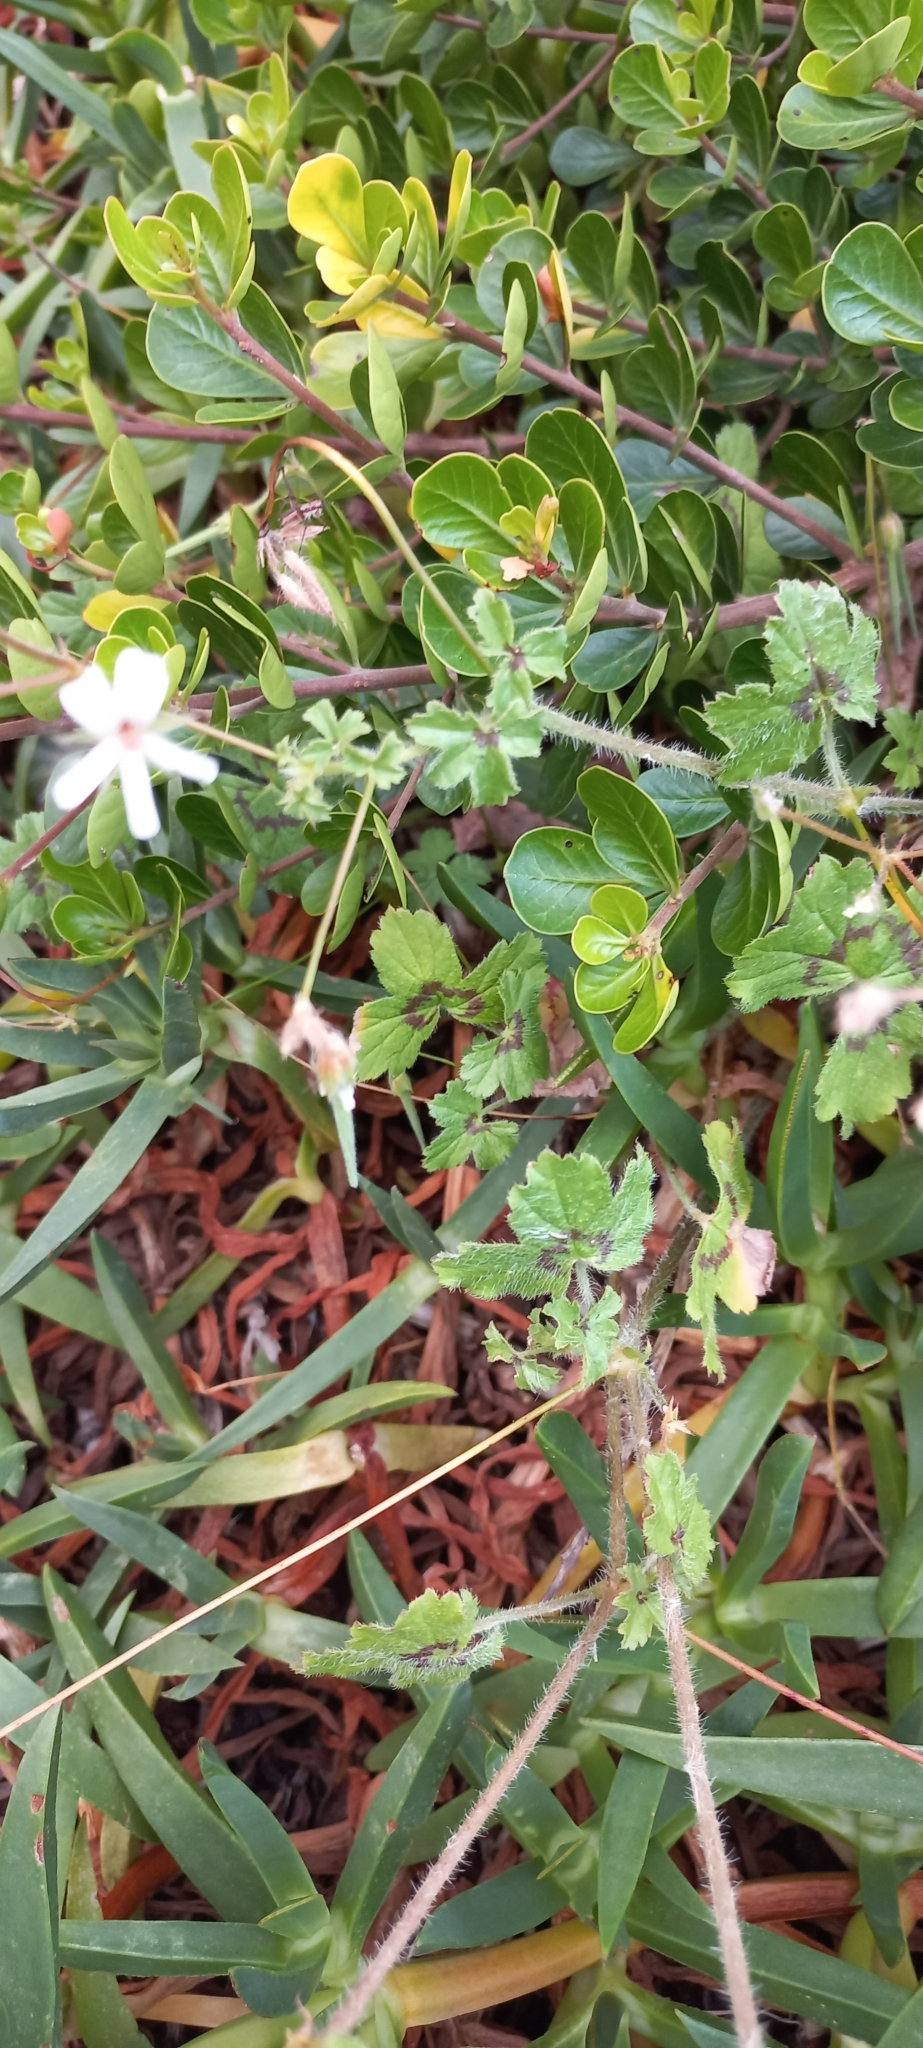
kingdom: Plantae
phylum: Tracheophyta
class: Magnoliopsida
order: Geraniales
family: Geraniaceae
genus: Pelargonium
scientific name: Pelargonium alchemilloides
